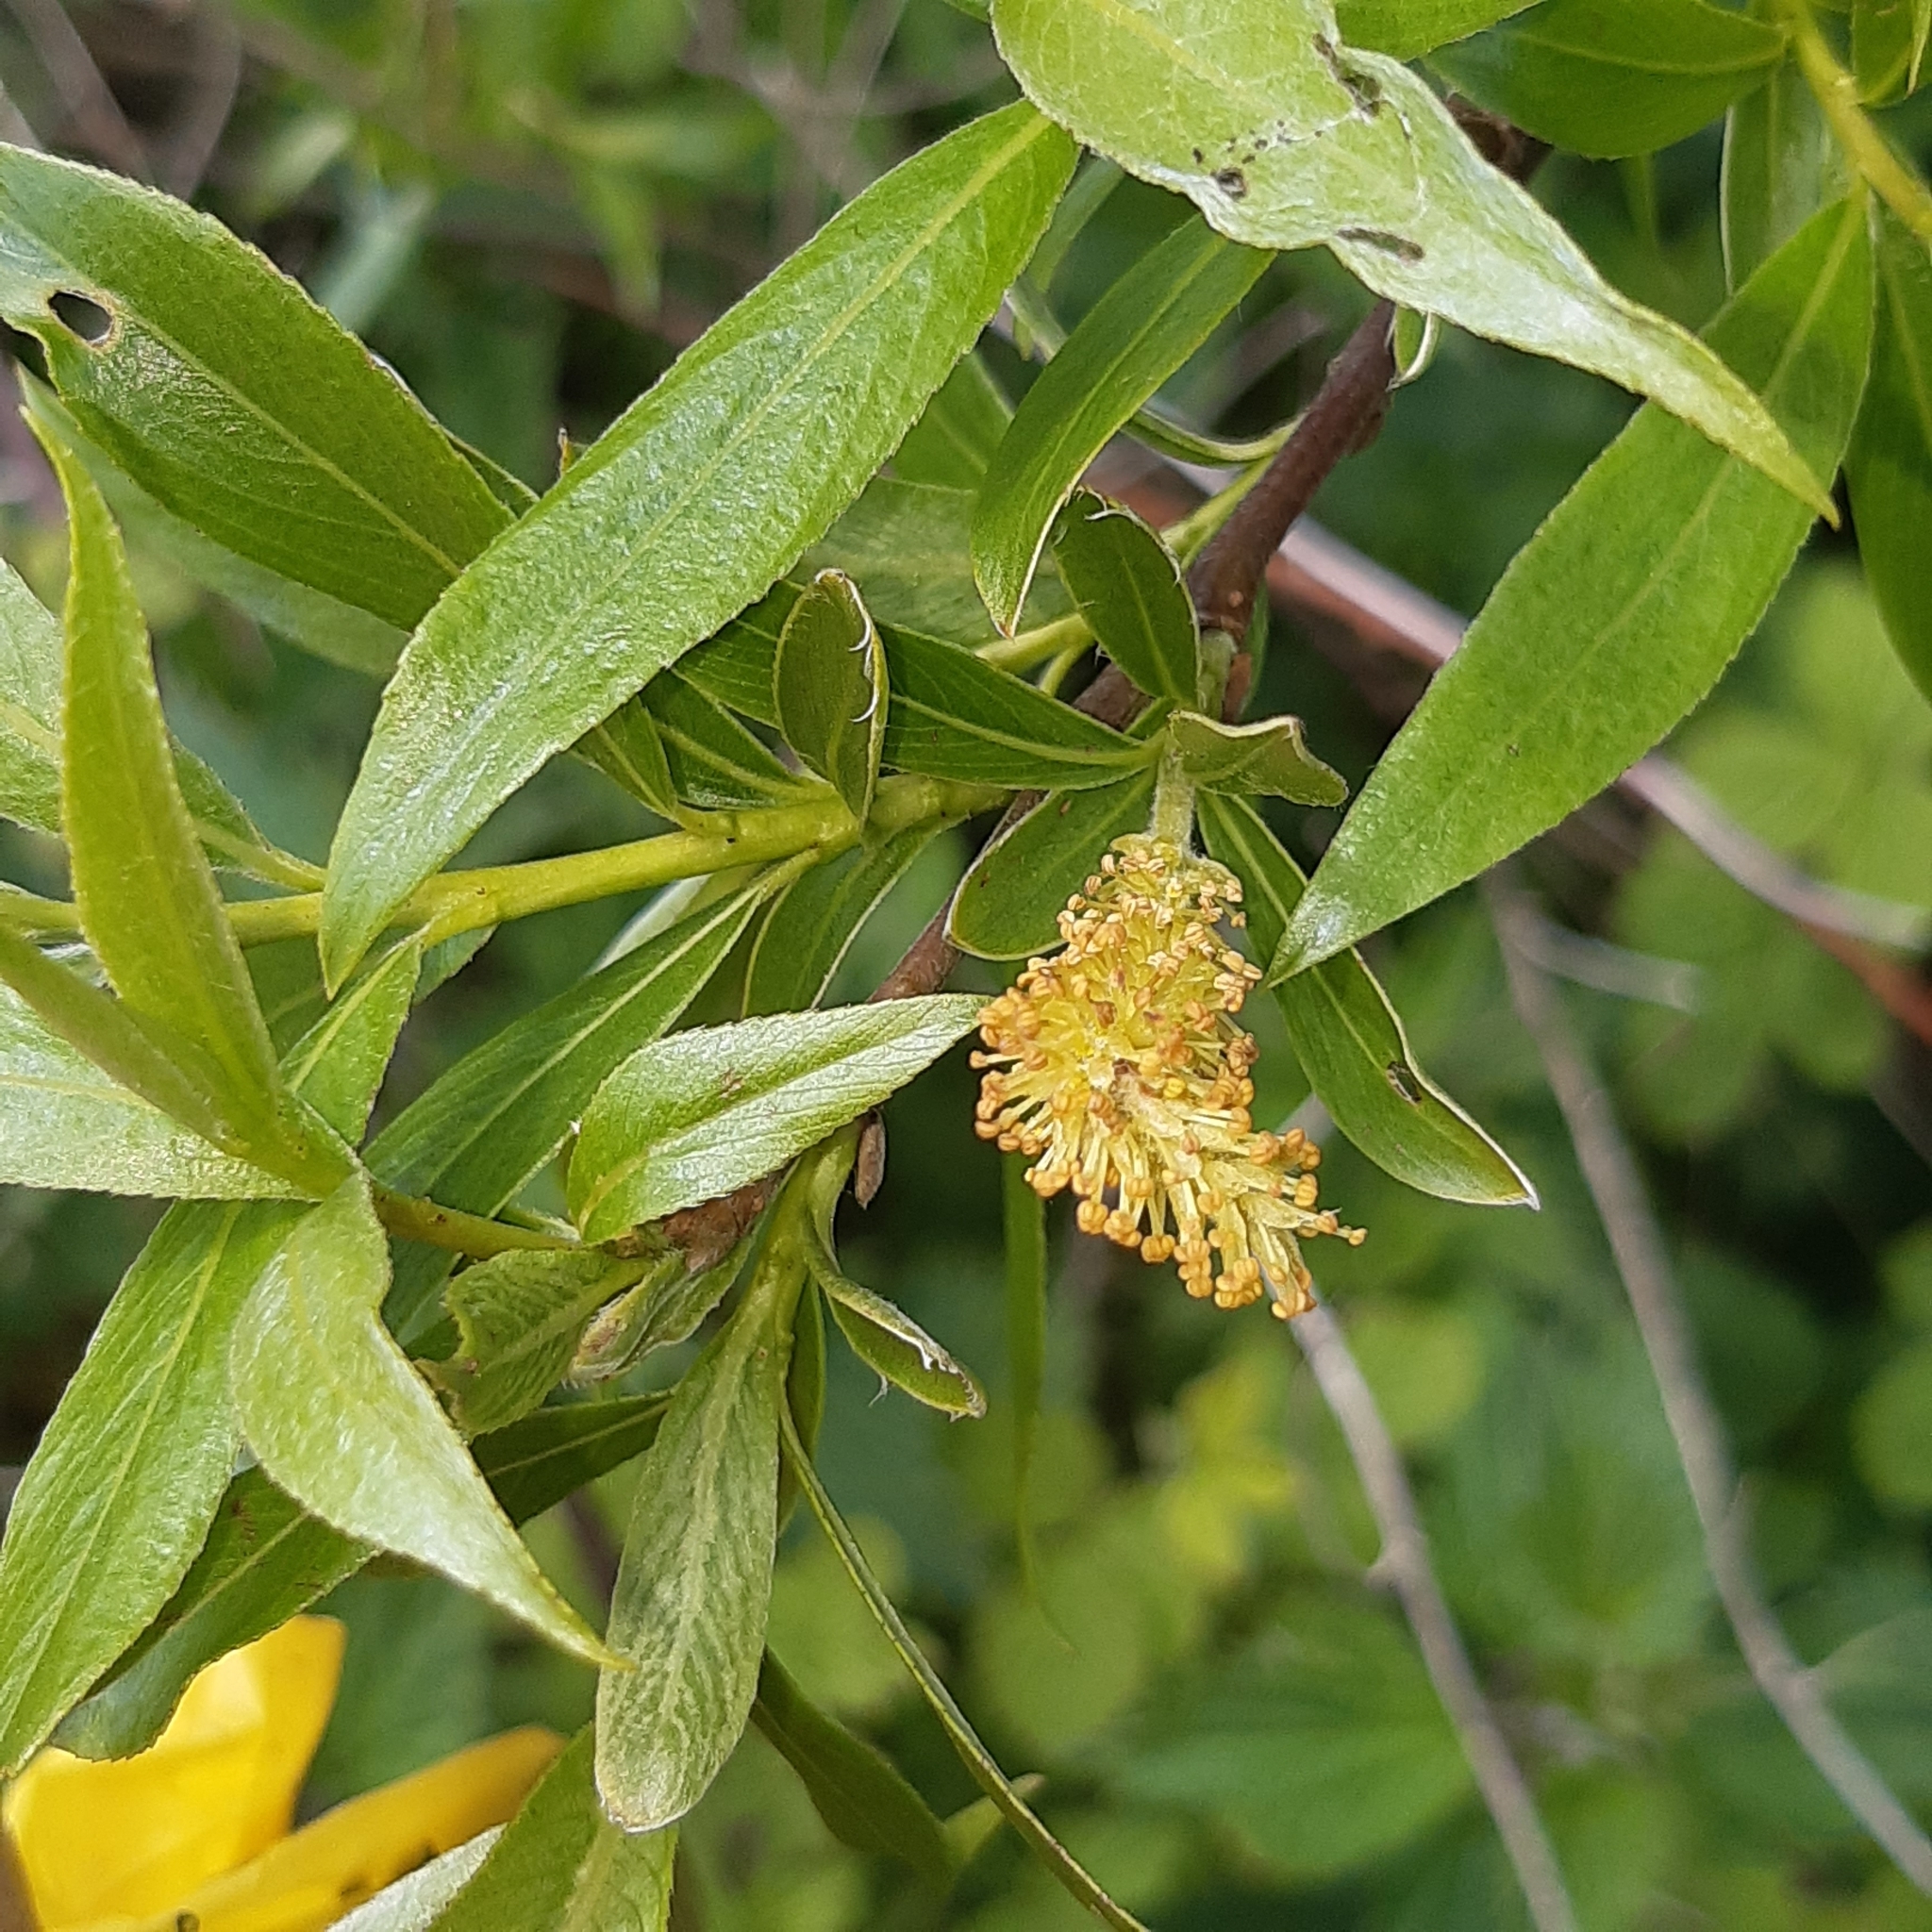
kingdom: Plantae
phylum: Tracheophyta
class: Magnoliopsida
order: Malpighiales
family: Salicaceae
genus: Salix
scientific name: Salix fragilis
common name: Crack willow
